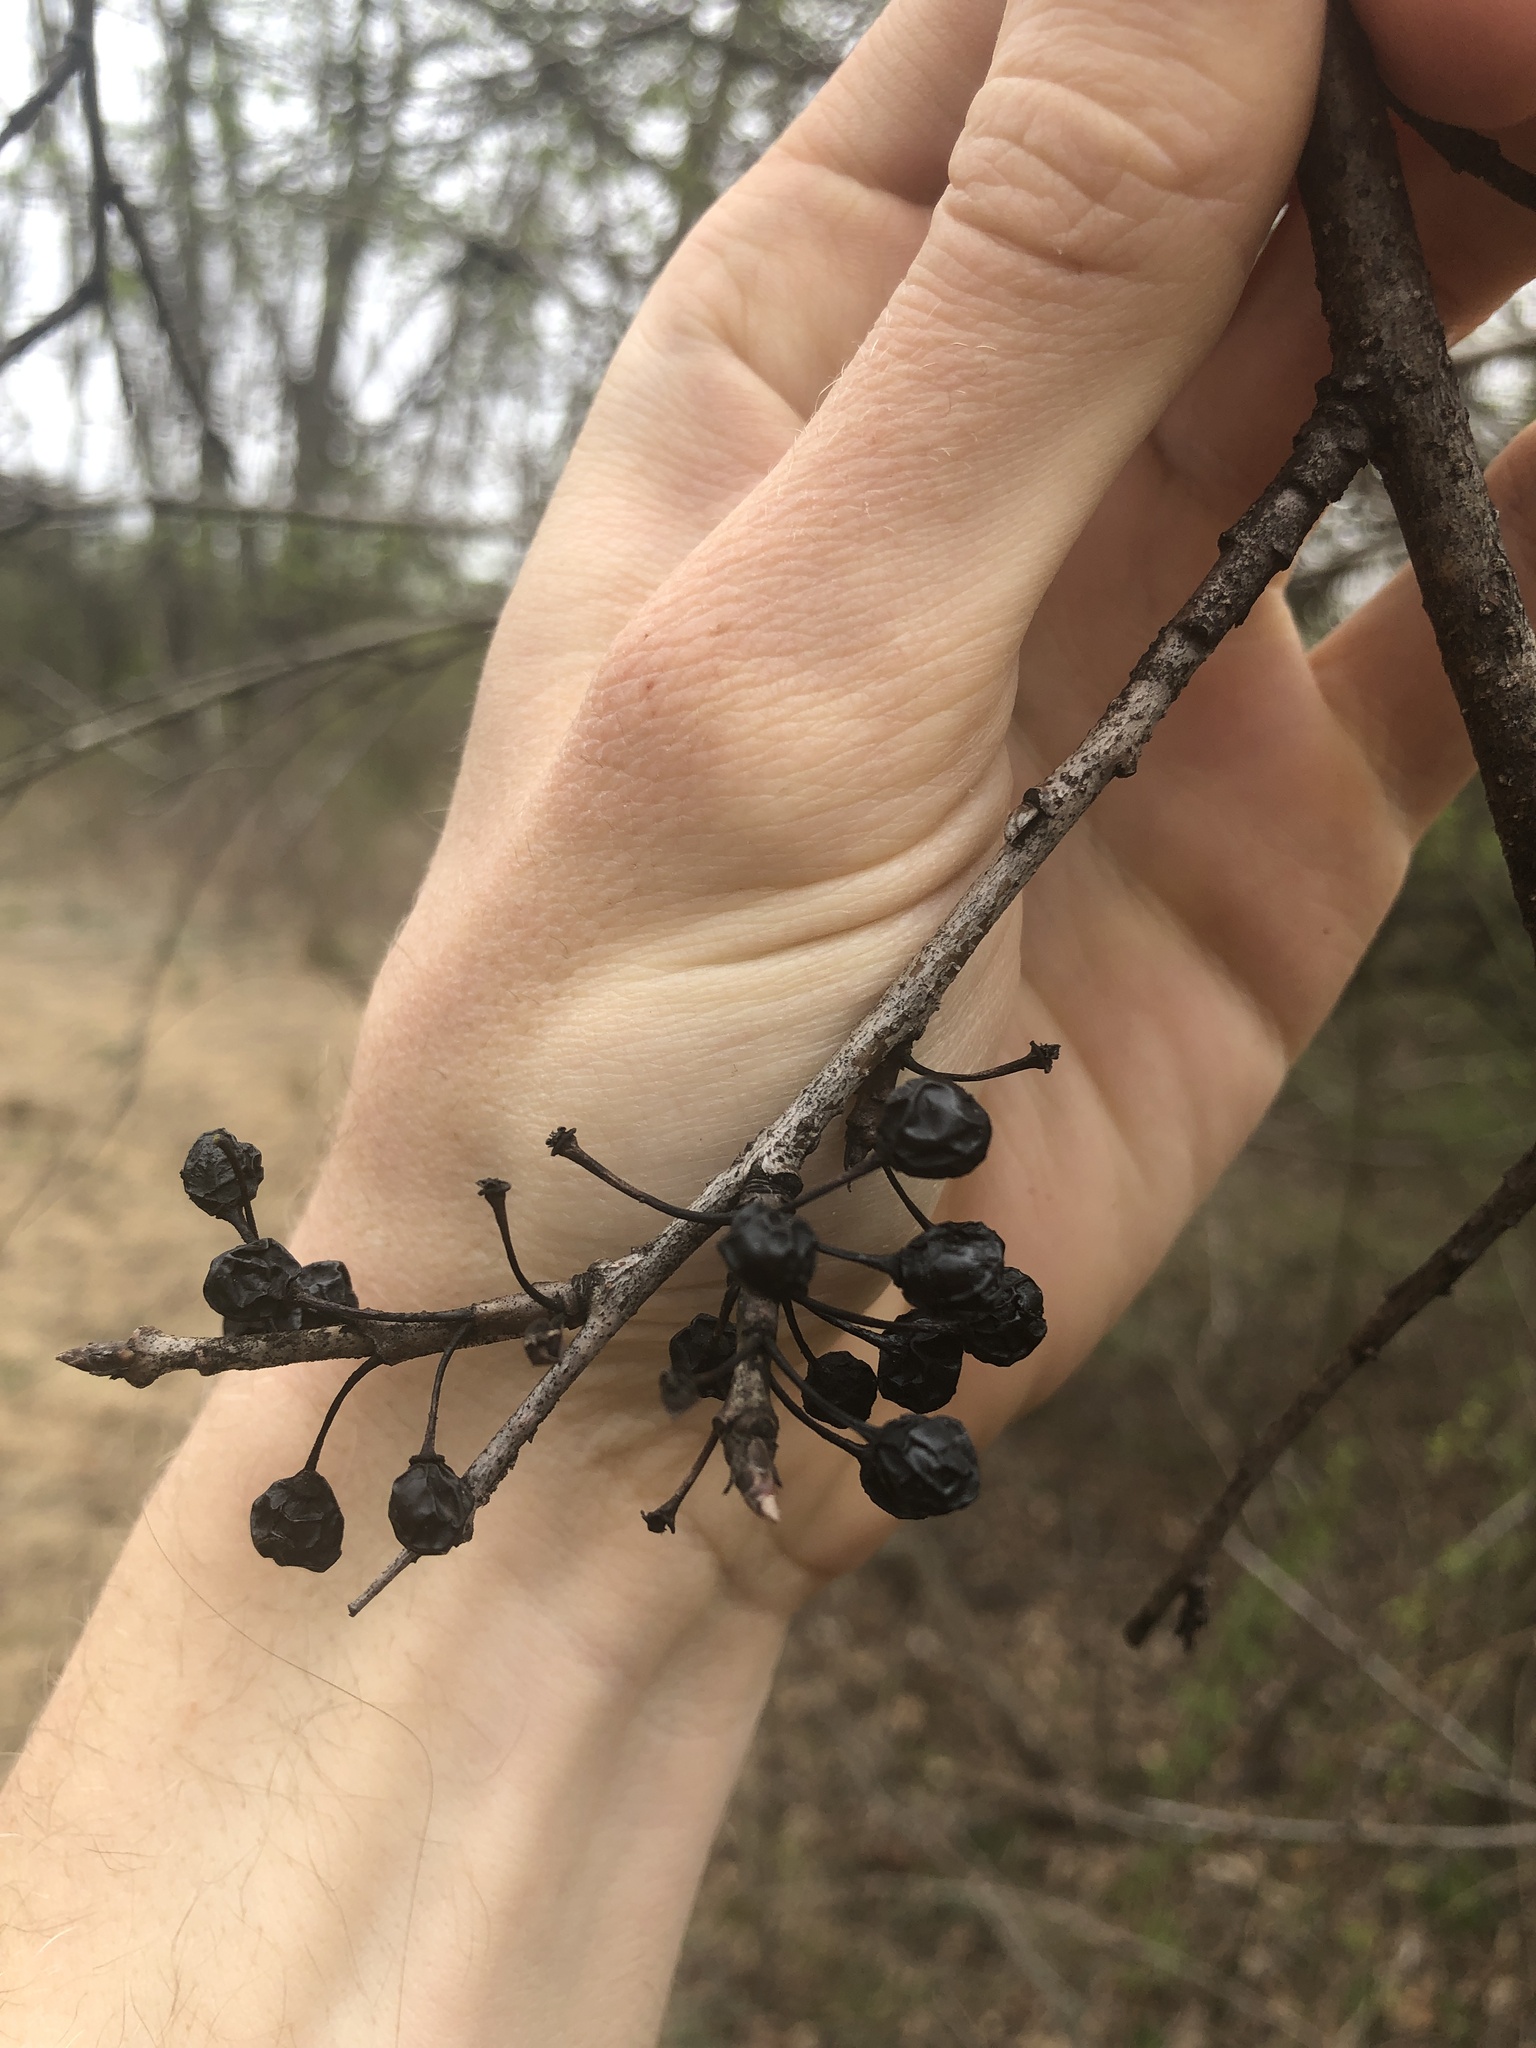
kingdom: Plantae
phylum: Tracheophyta
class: Magnoliopsida
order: Rosales
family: Rhamnaceae
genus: Rhamnus
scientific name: Rhamnus cathartica
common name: Common buckthorn
